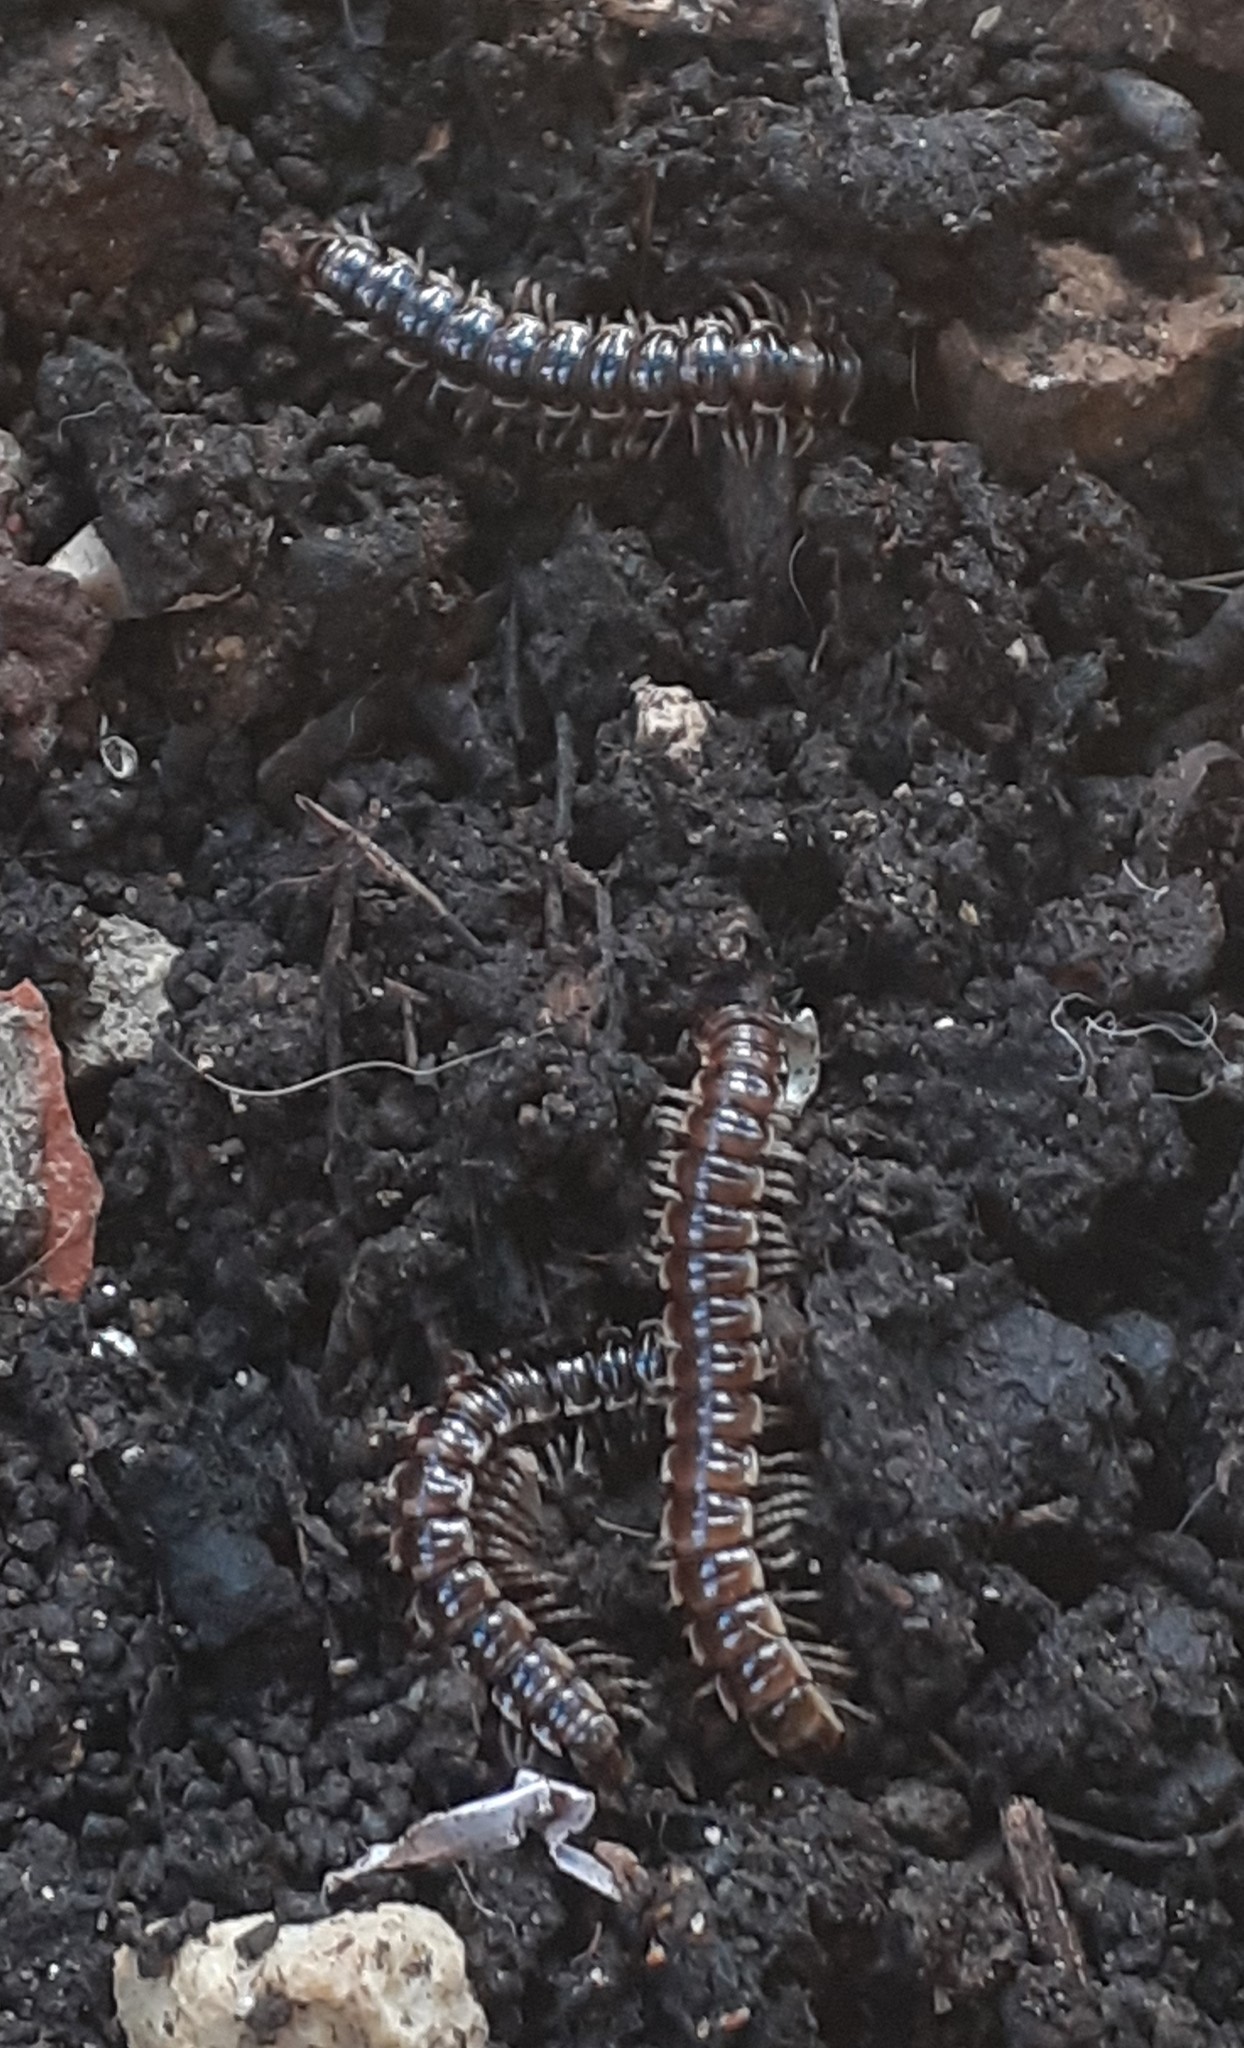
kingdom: Animalia
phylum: Arthropoda
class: Diplopoda
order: Polydesmida
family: Paradoxosomatidae
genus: Oxidus
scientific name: Oxidus gracilis
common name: Greenhouse millipede
